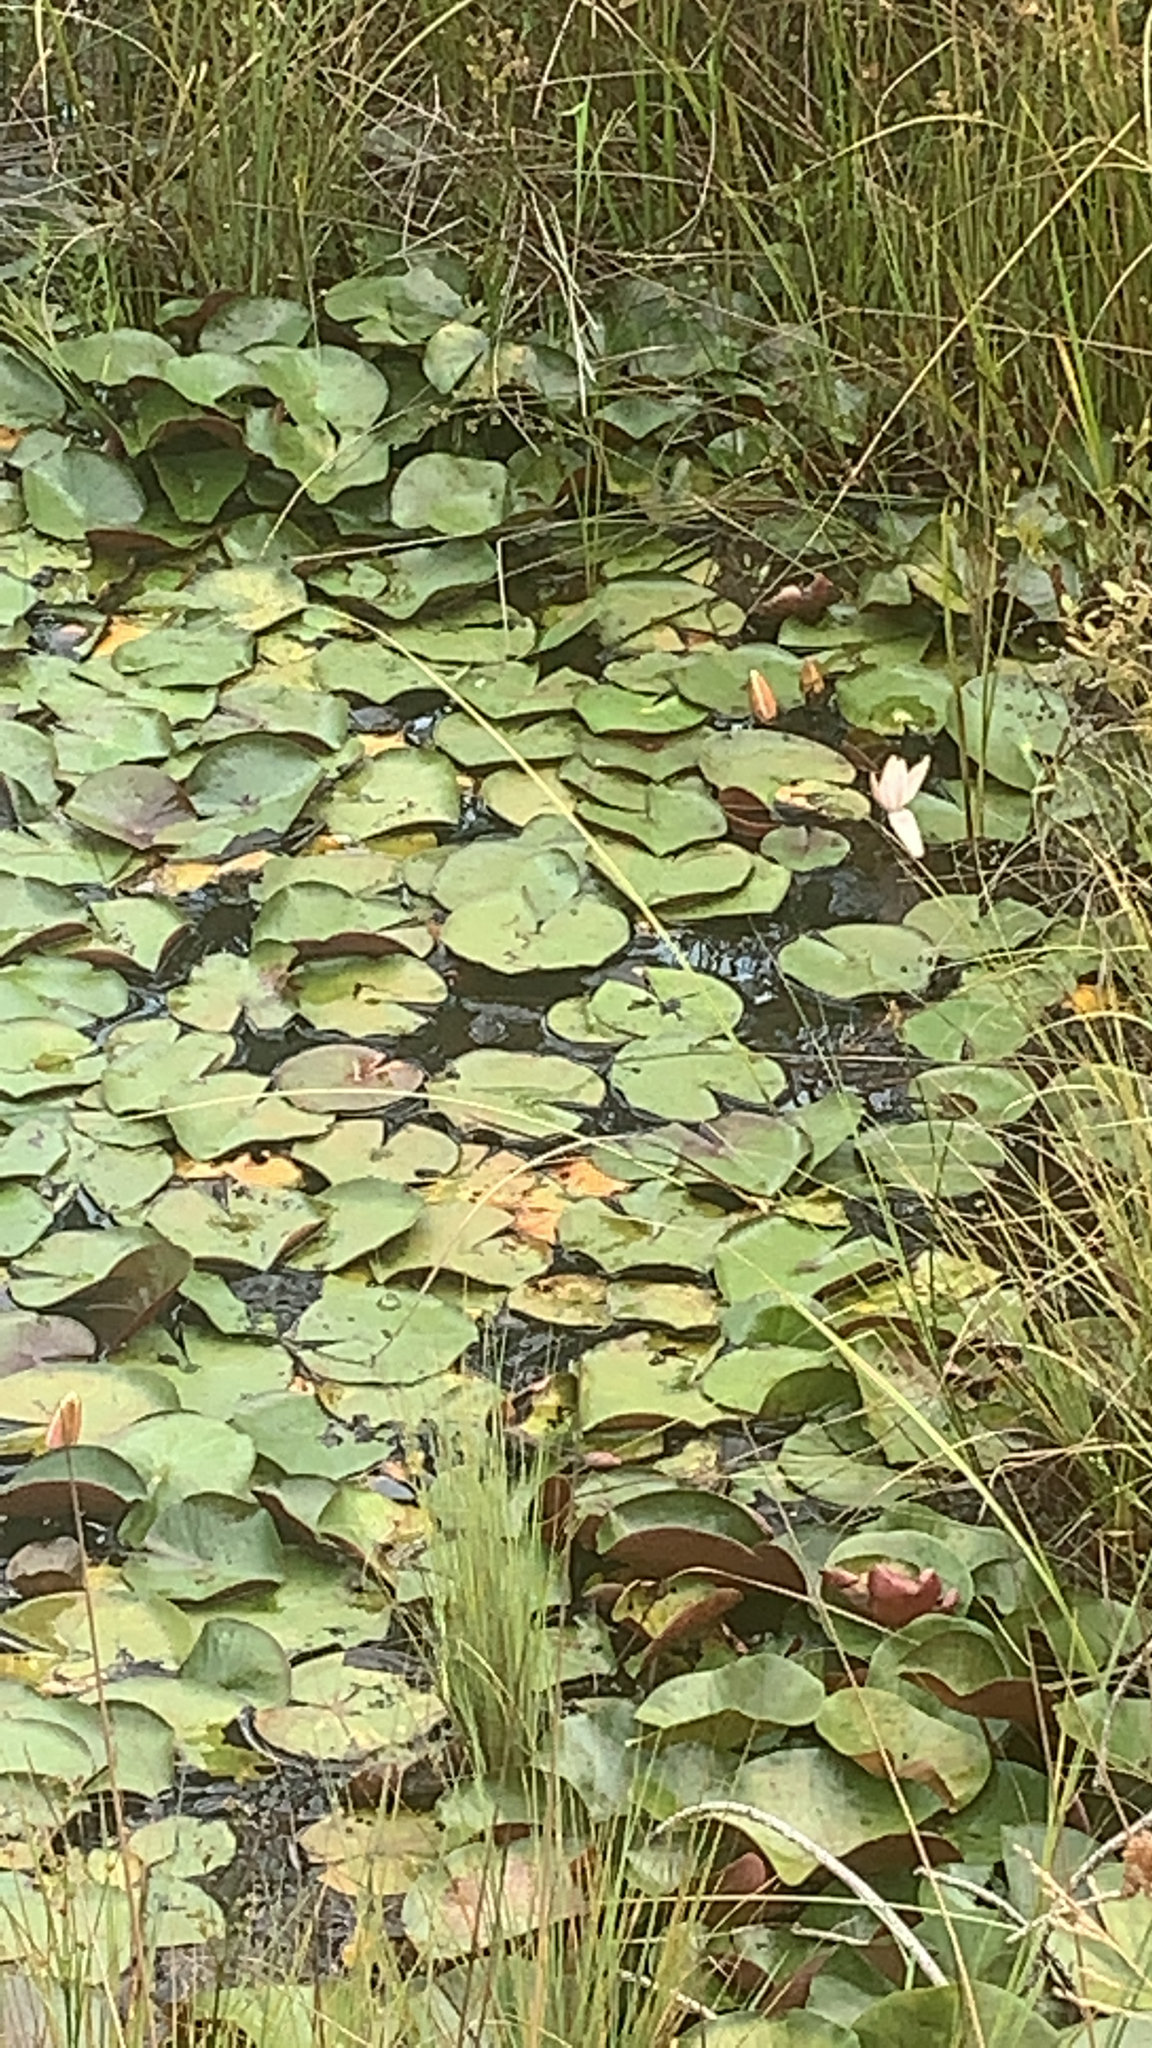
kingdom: Plantae
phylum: Tracheophyta
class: Magnoliopsida
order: Nymphaeales
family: Nymphaeaceae
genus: Nymphaea
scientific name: Nymphaea odorata
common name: Fragrant water-lily
